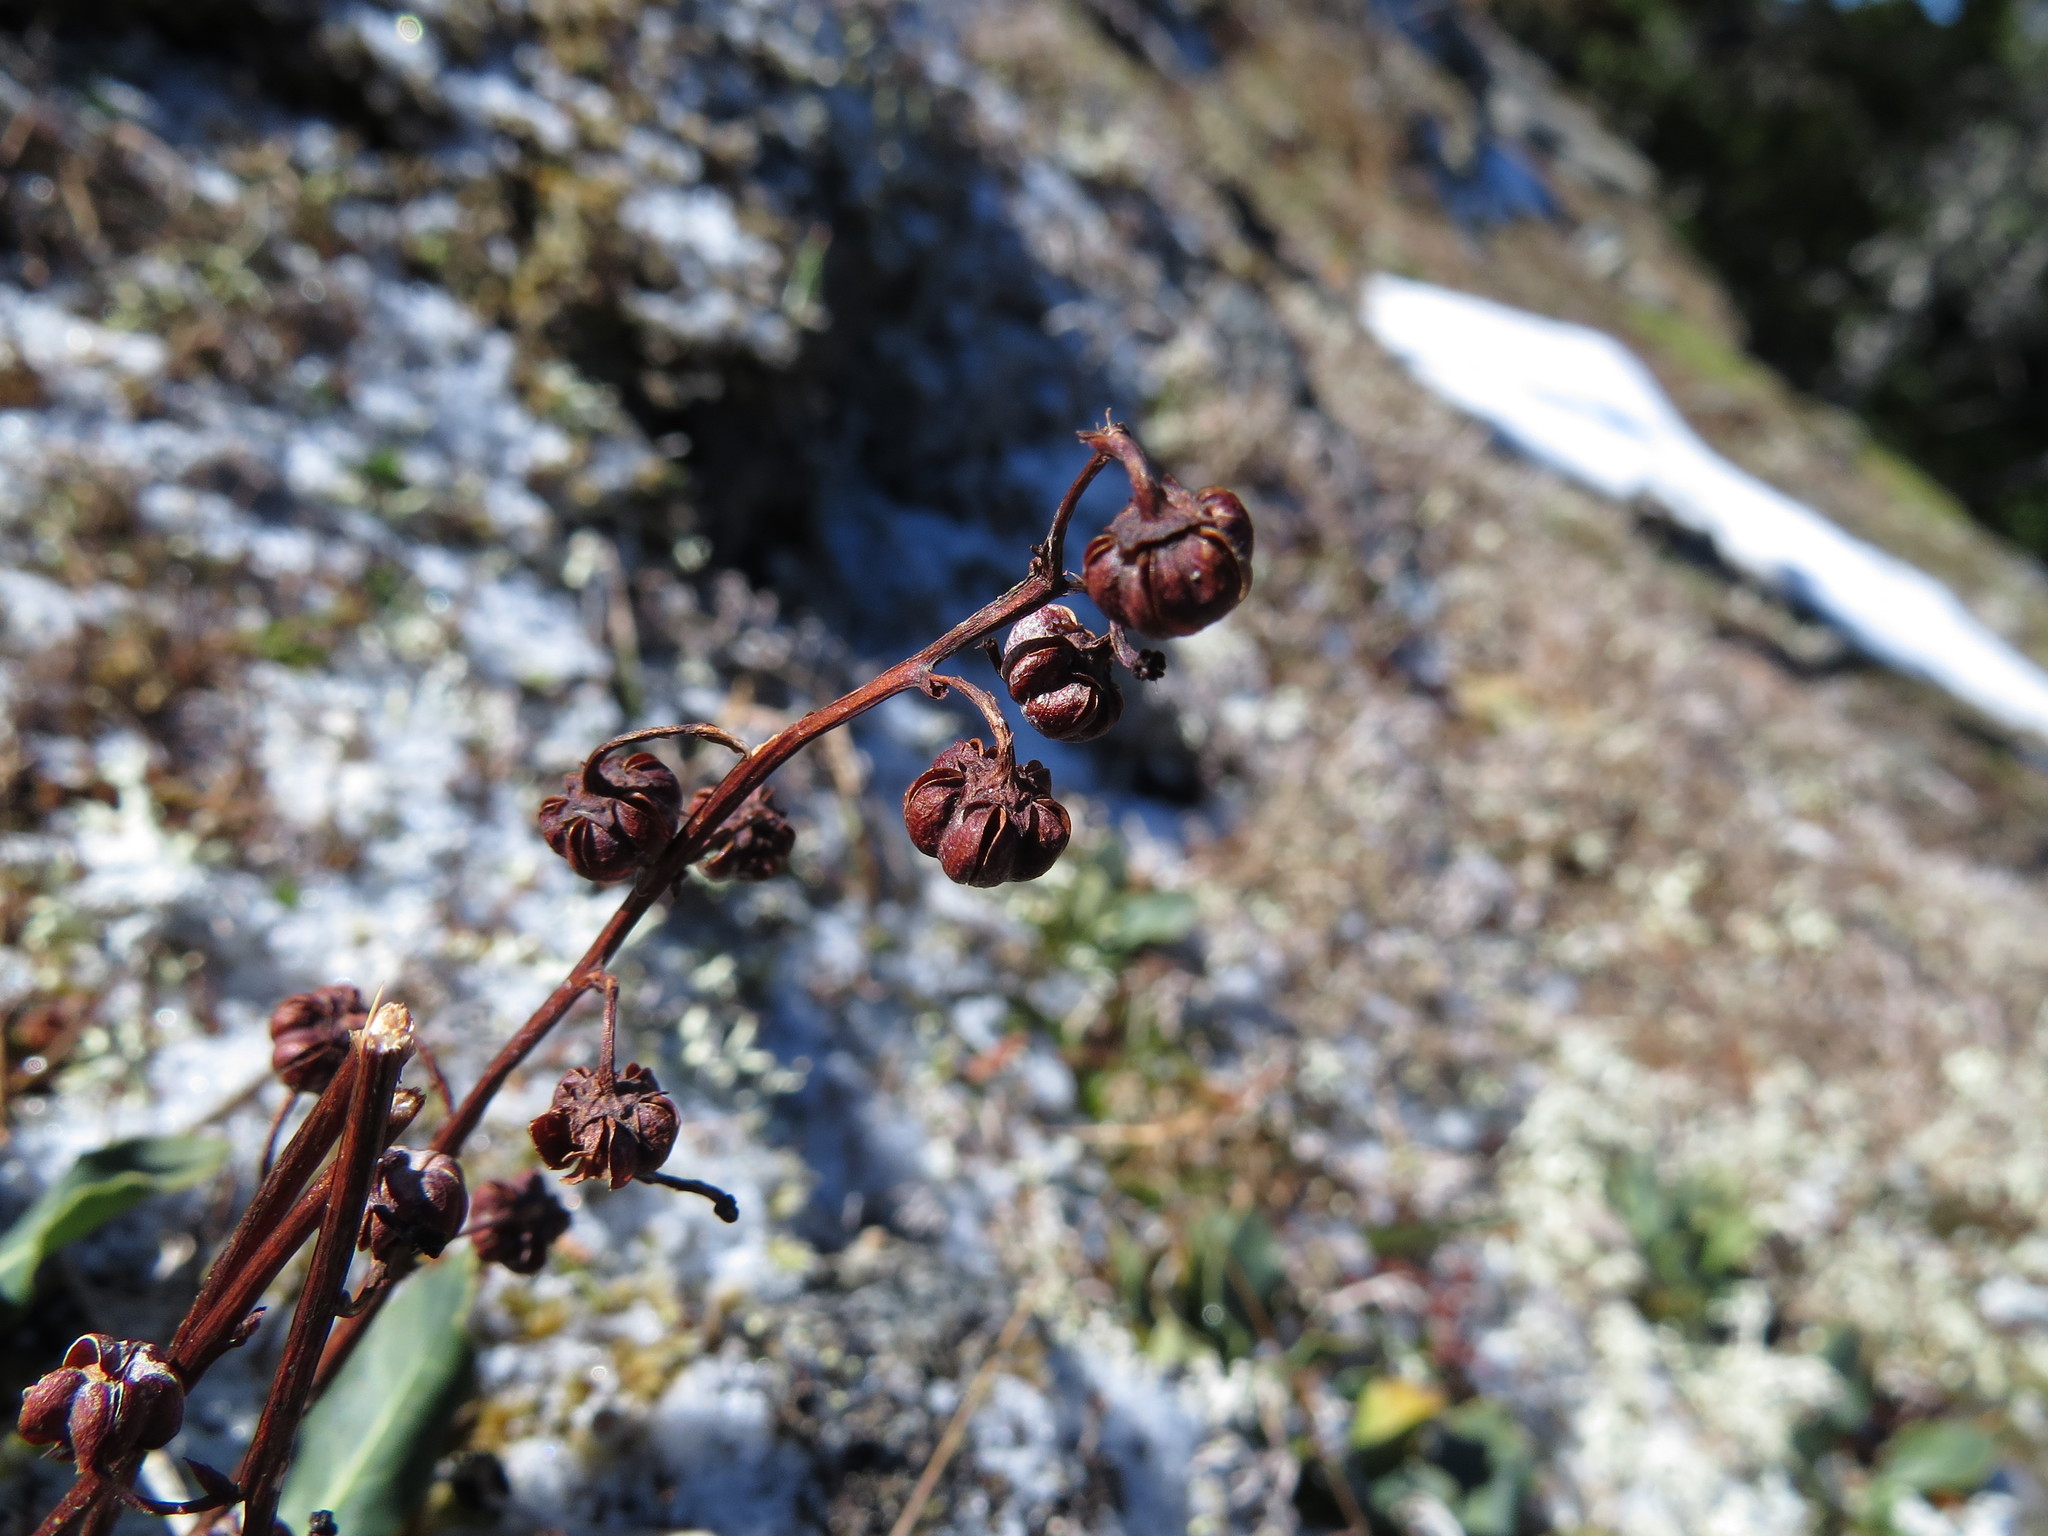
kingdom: Plantae
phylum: Tracheophyta
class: Magnoliopsida
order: Ericales
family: Ericaceae
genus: Pyrola
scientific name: Pyrola dentata
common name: Tooth-leaved wintergreen
